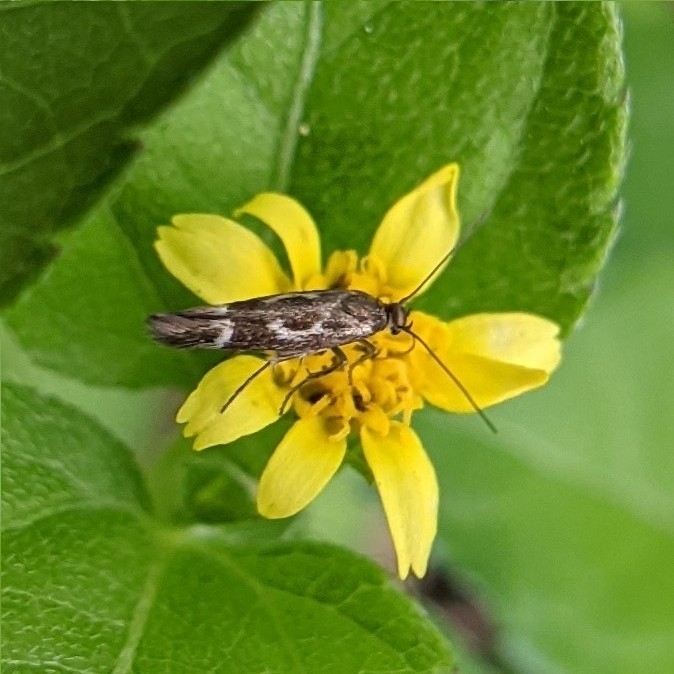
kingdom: Animalia
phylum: Arthropoda
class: Insecta
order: Lepidoptera
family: Scythrididae
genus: Scythris
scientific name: Scythris trivinctella
